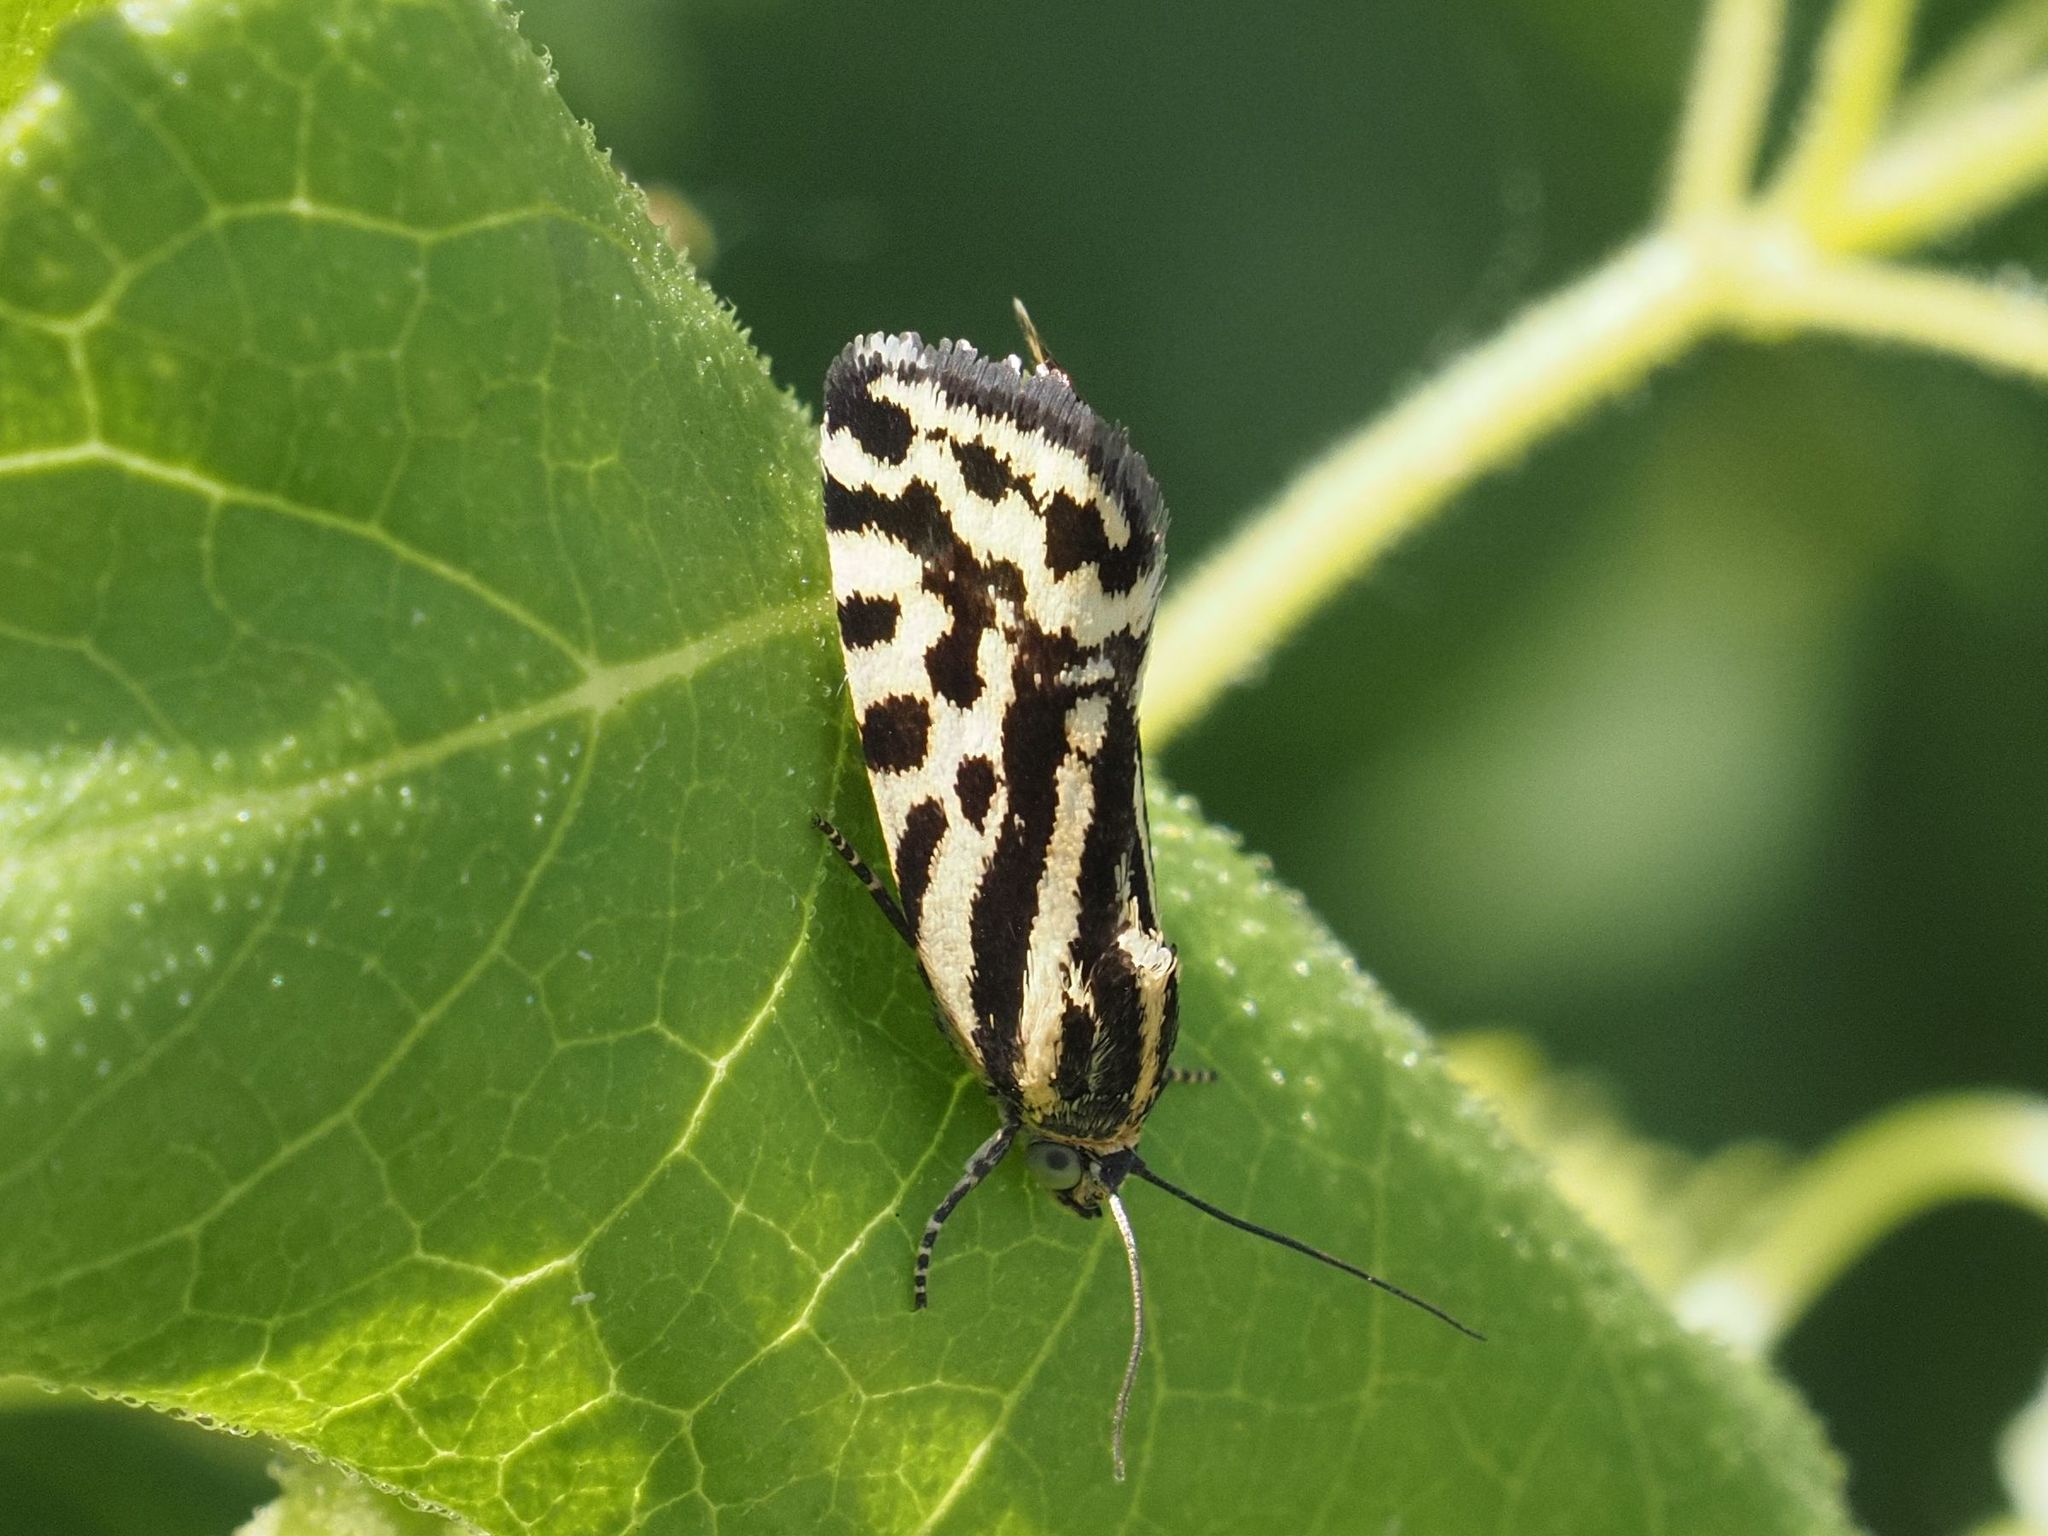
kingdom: Animalia
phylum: Arthropoda
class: Insecta
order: Lepidoptera
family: Noctuidae
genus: Acontia
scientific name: Acontia trabealis
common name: Spotted sulphur
